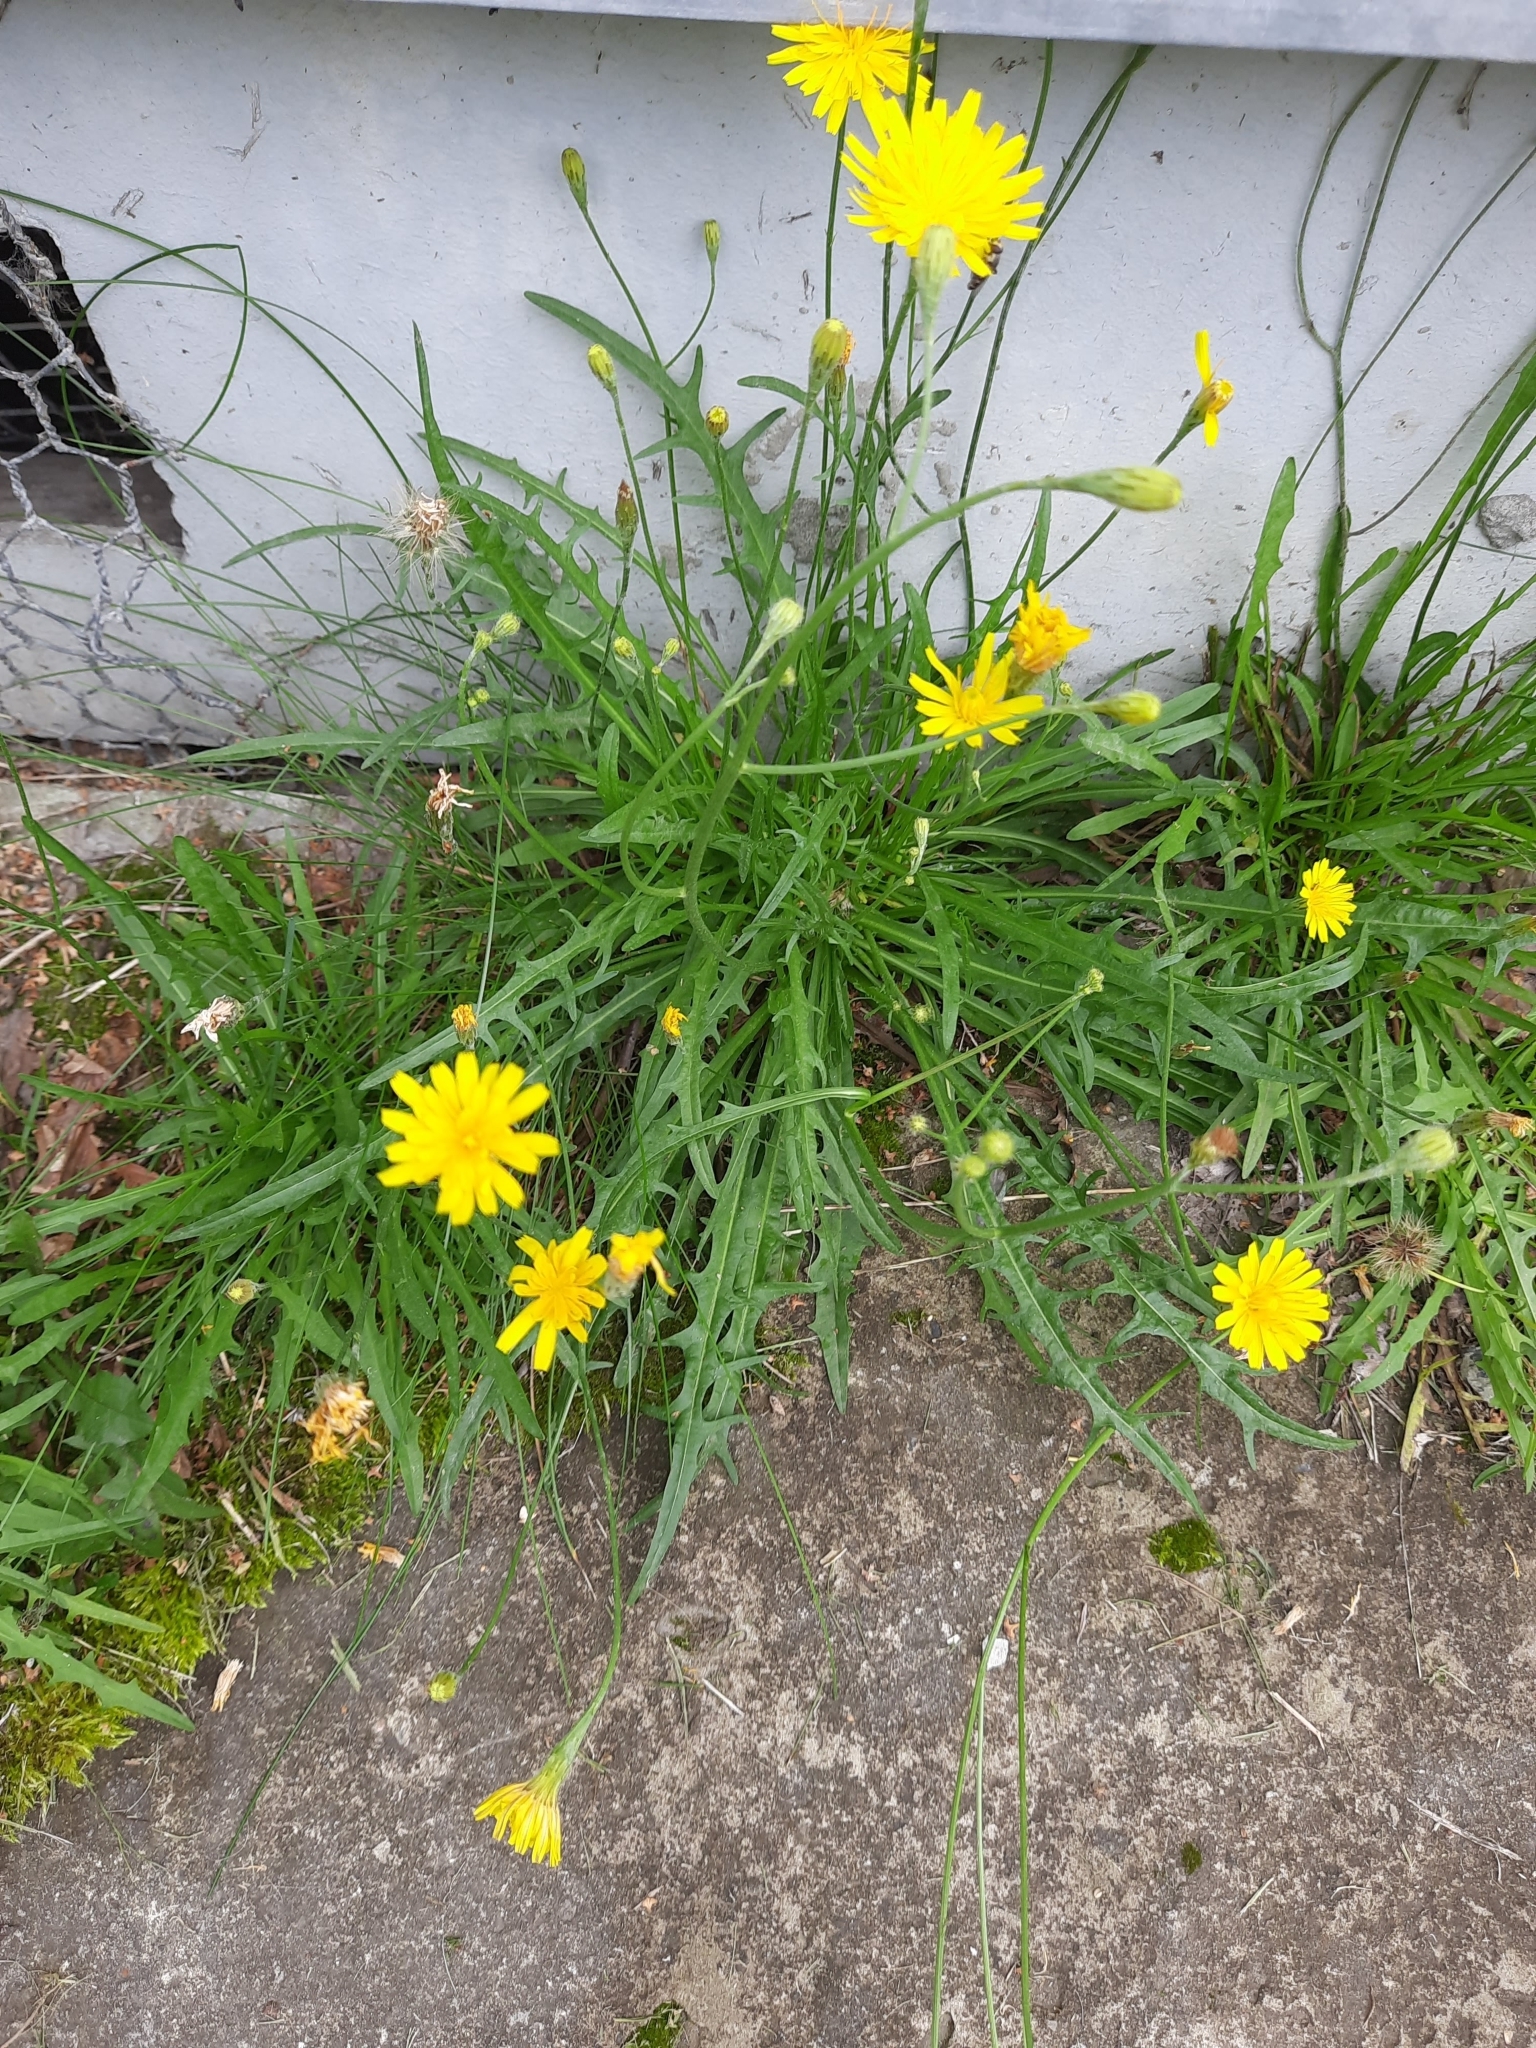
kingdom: Plantae
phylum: Tracheophyta
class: Magnoliopsida
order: Asterales
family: Asteraceae
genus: Scorzoneroides
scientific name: Scorzoneroides autumnalis
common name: Autumn hawkbit
